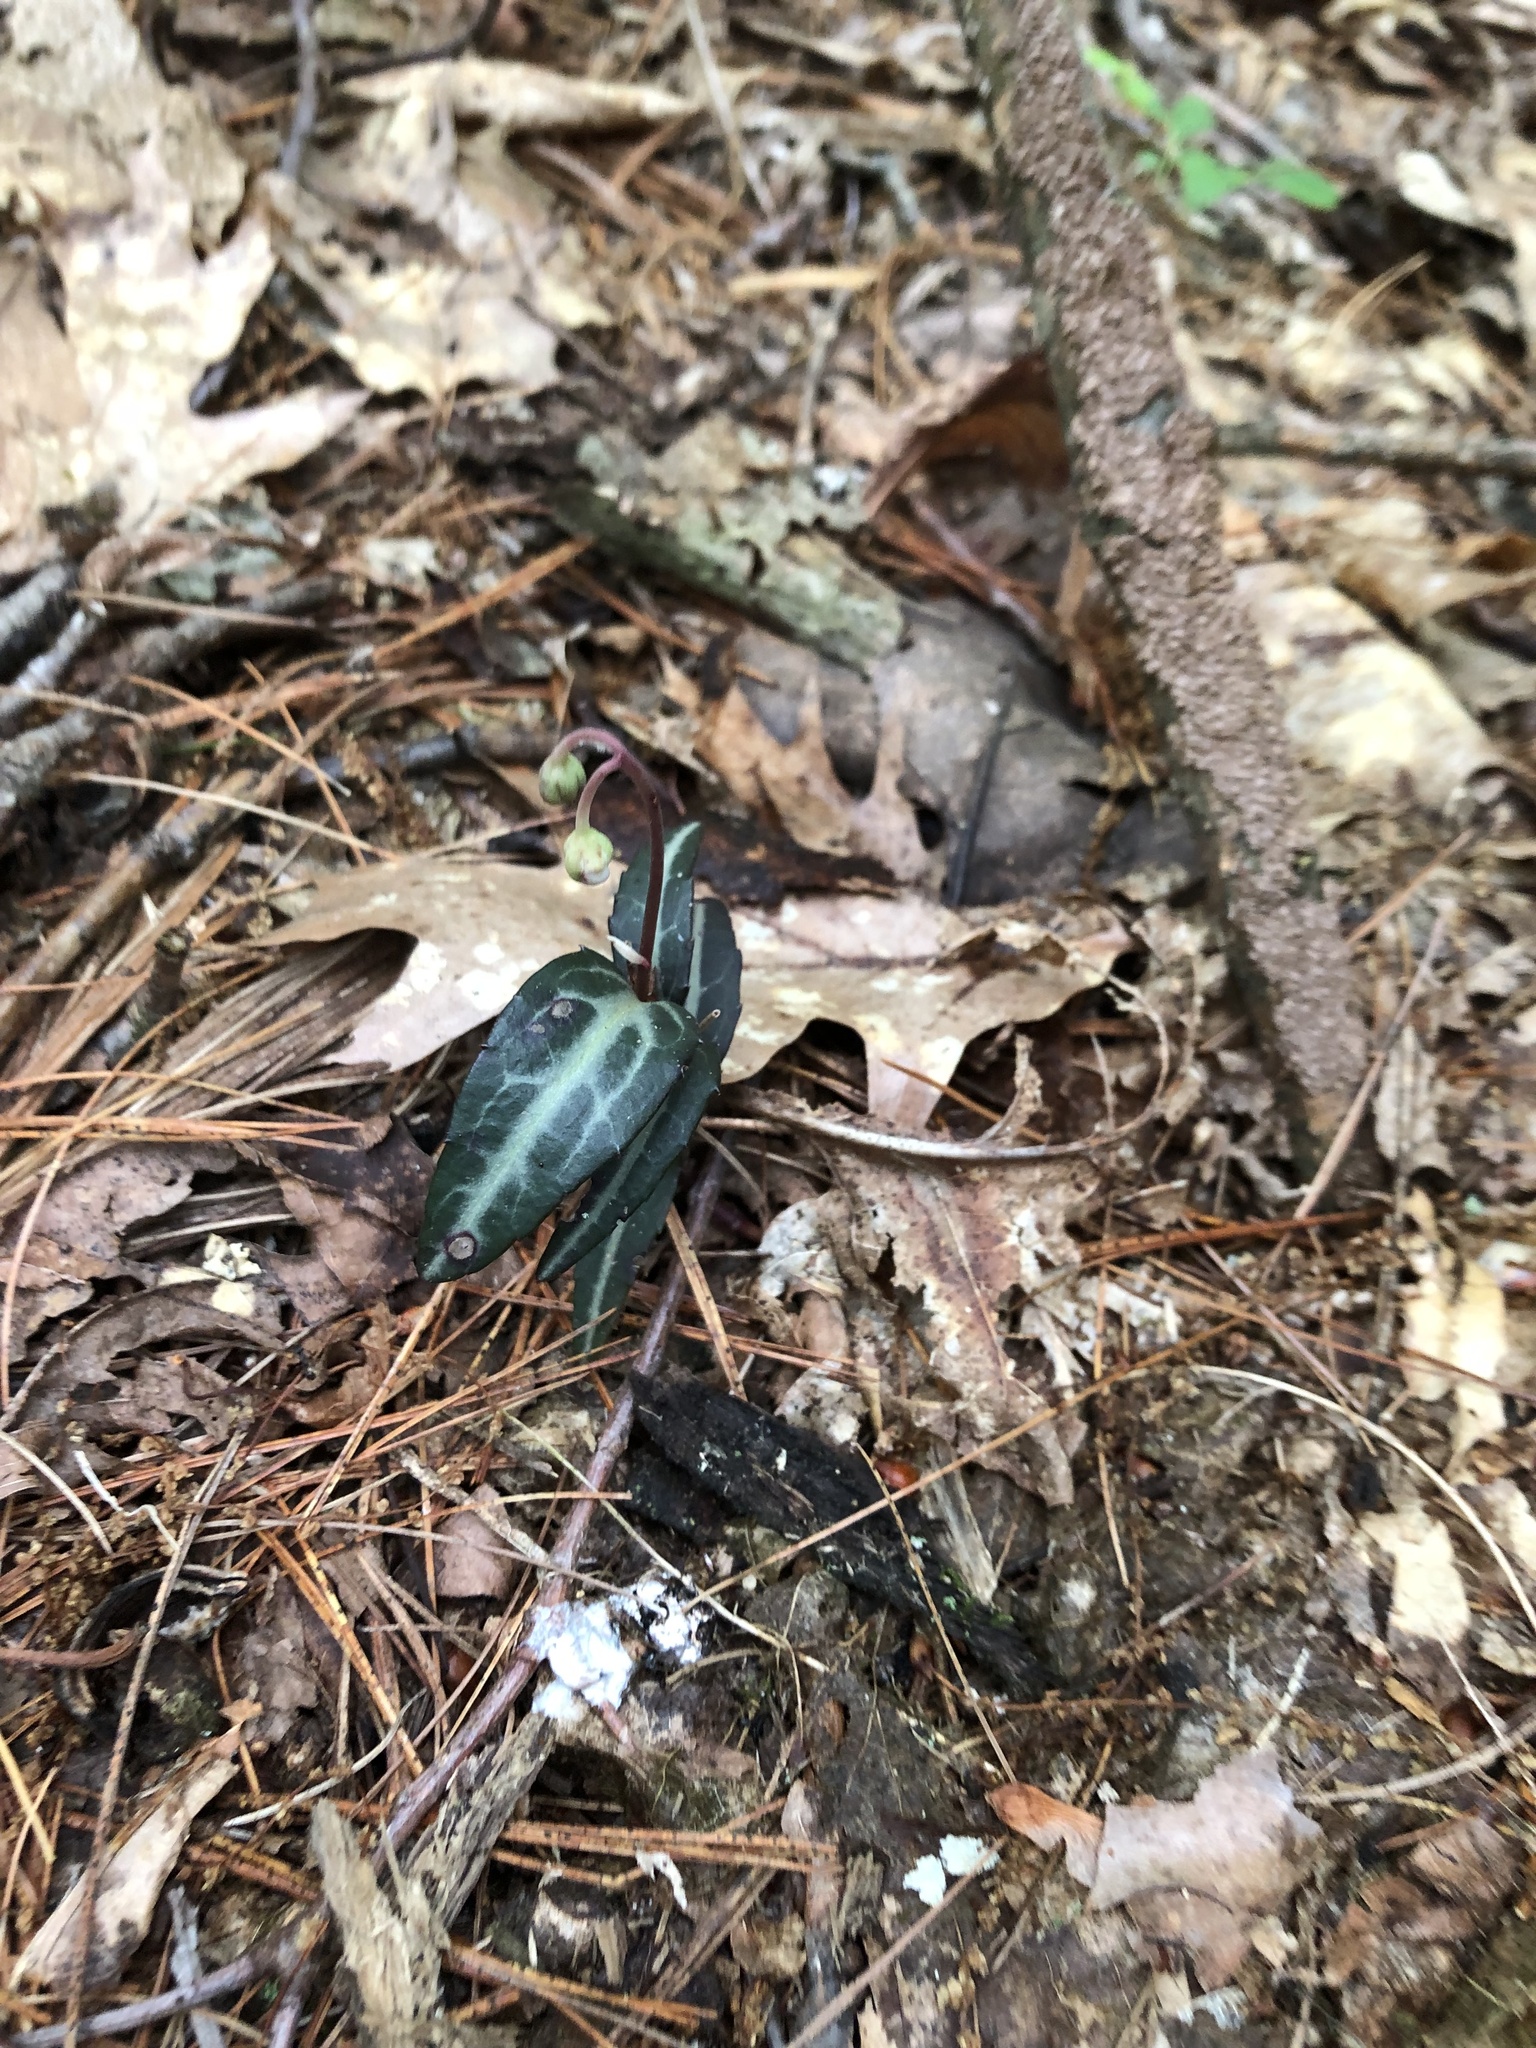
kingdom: Plantae
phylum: Tracheophyta
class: Magnoliopsida
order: Ericales
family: Ericaceae
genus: Chimaphila
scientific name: Chimaphila maculata
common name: Spotted pipsissewa
